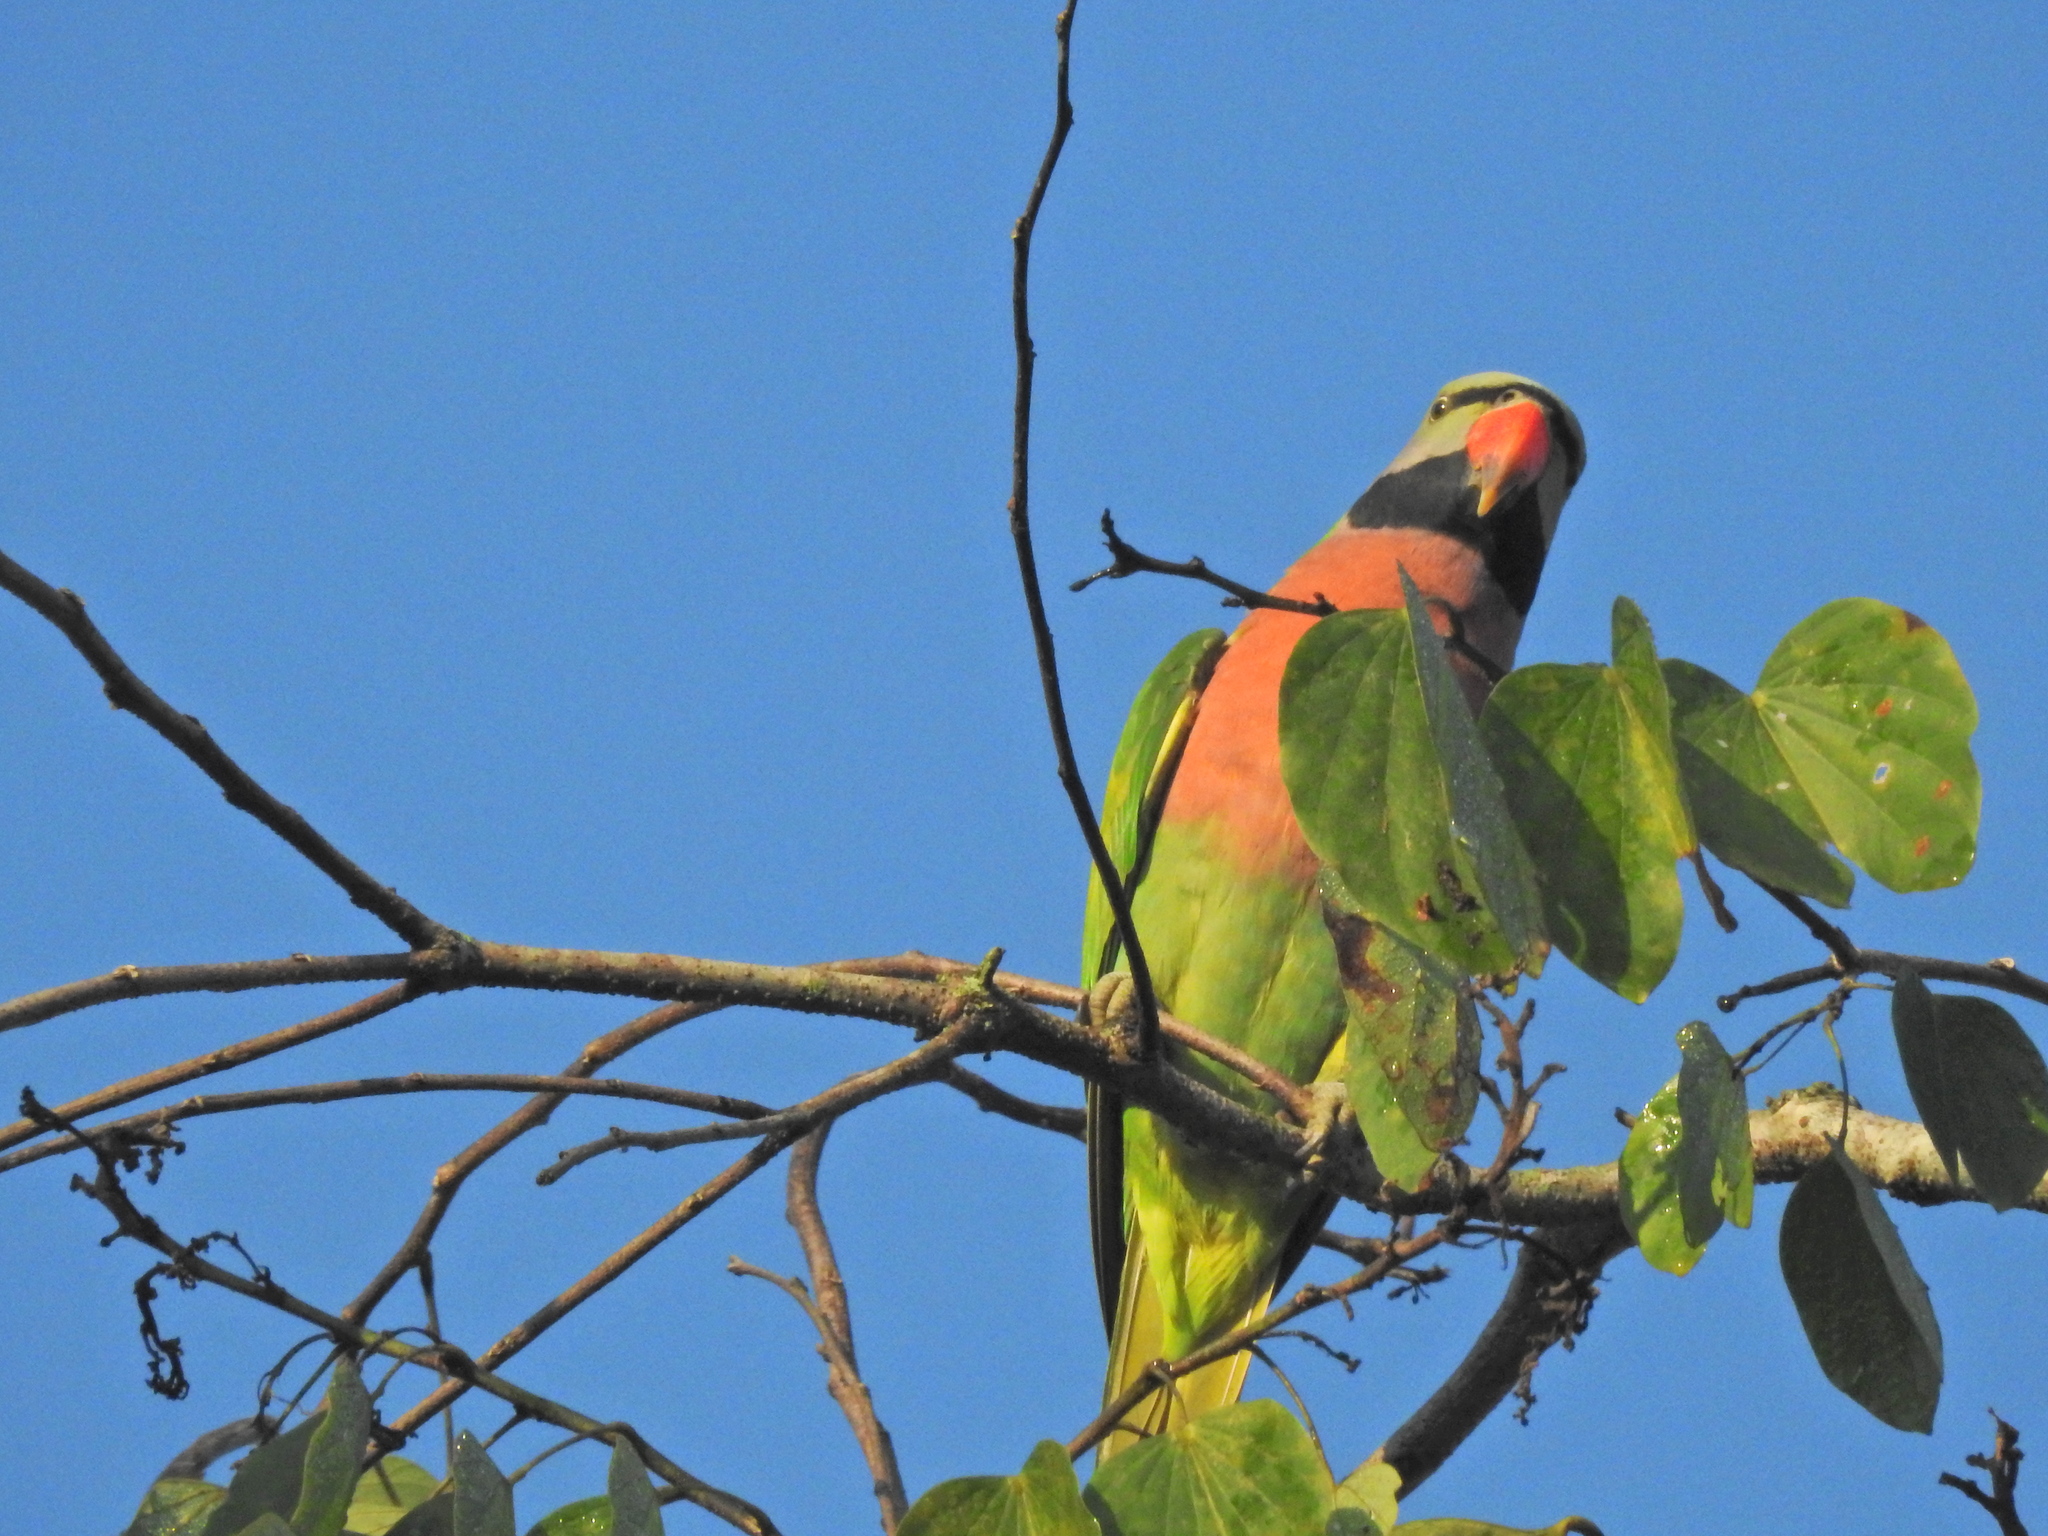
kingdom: Animalia
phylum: Chordata
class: Aves
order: Psittaciformes
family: Psittacidae
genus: Psittacula
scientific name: Psittacula alexandri
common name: Red-breasted parakeet
